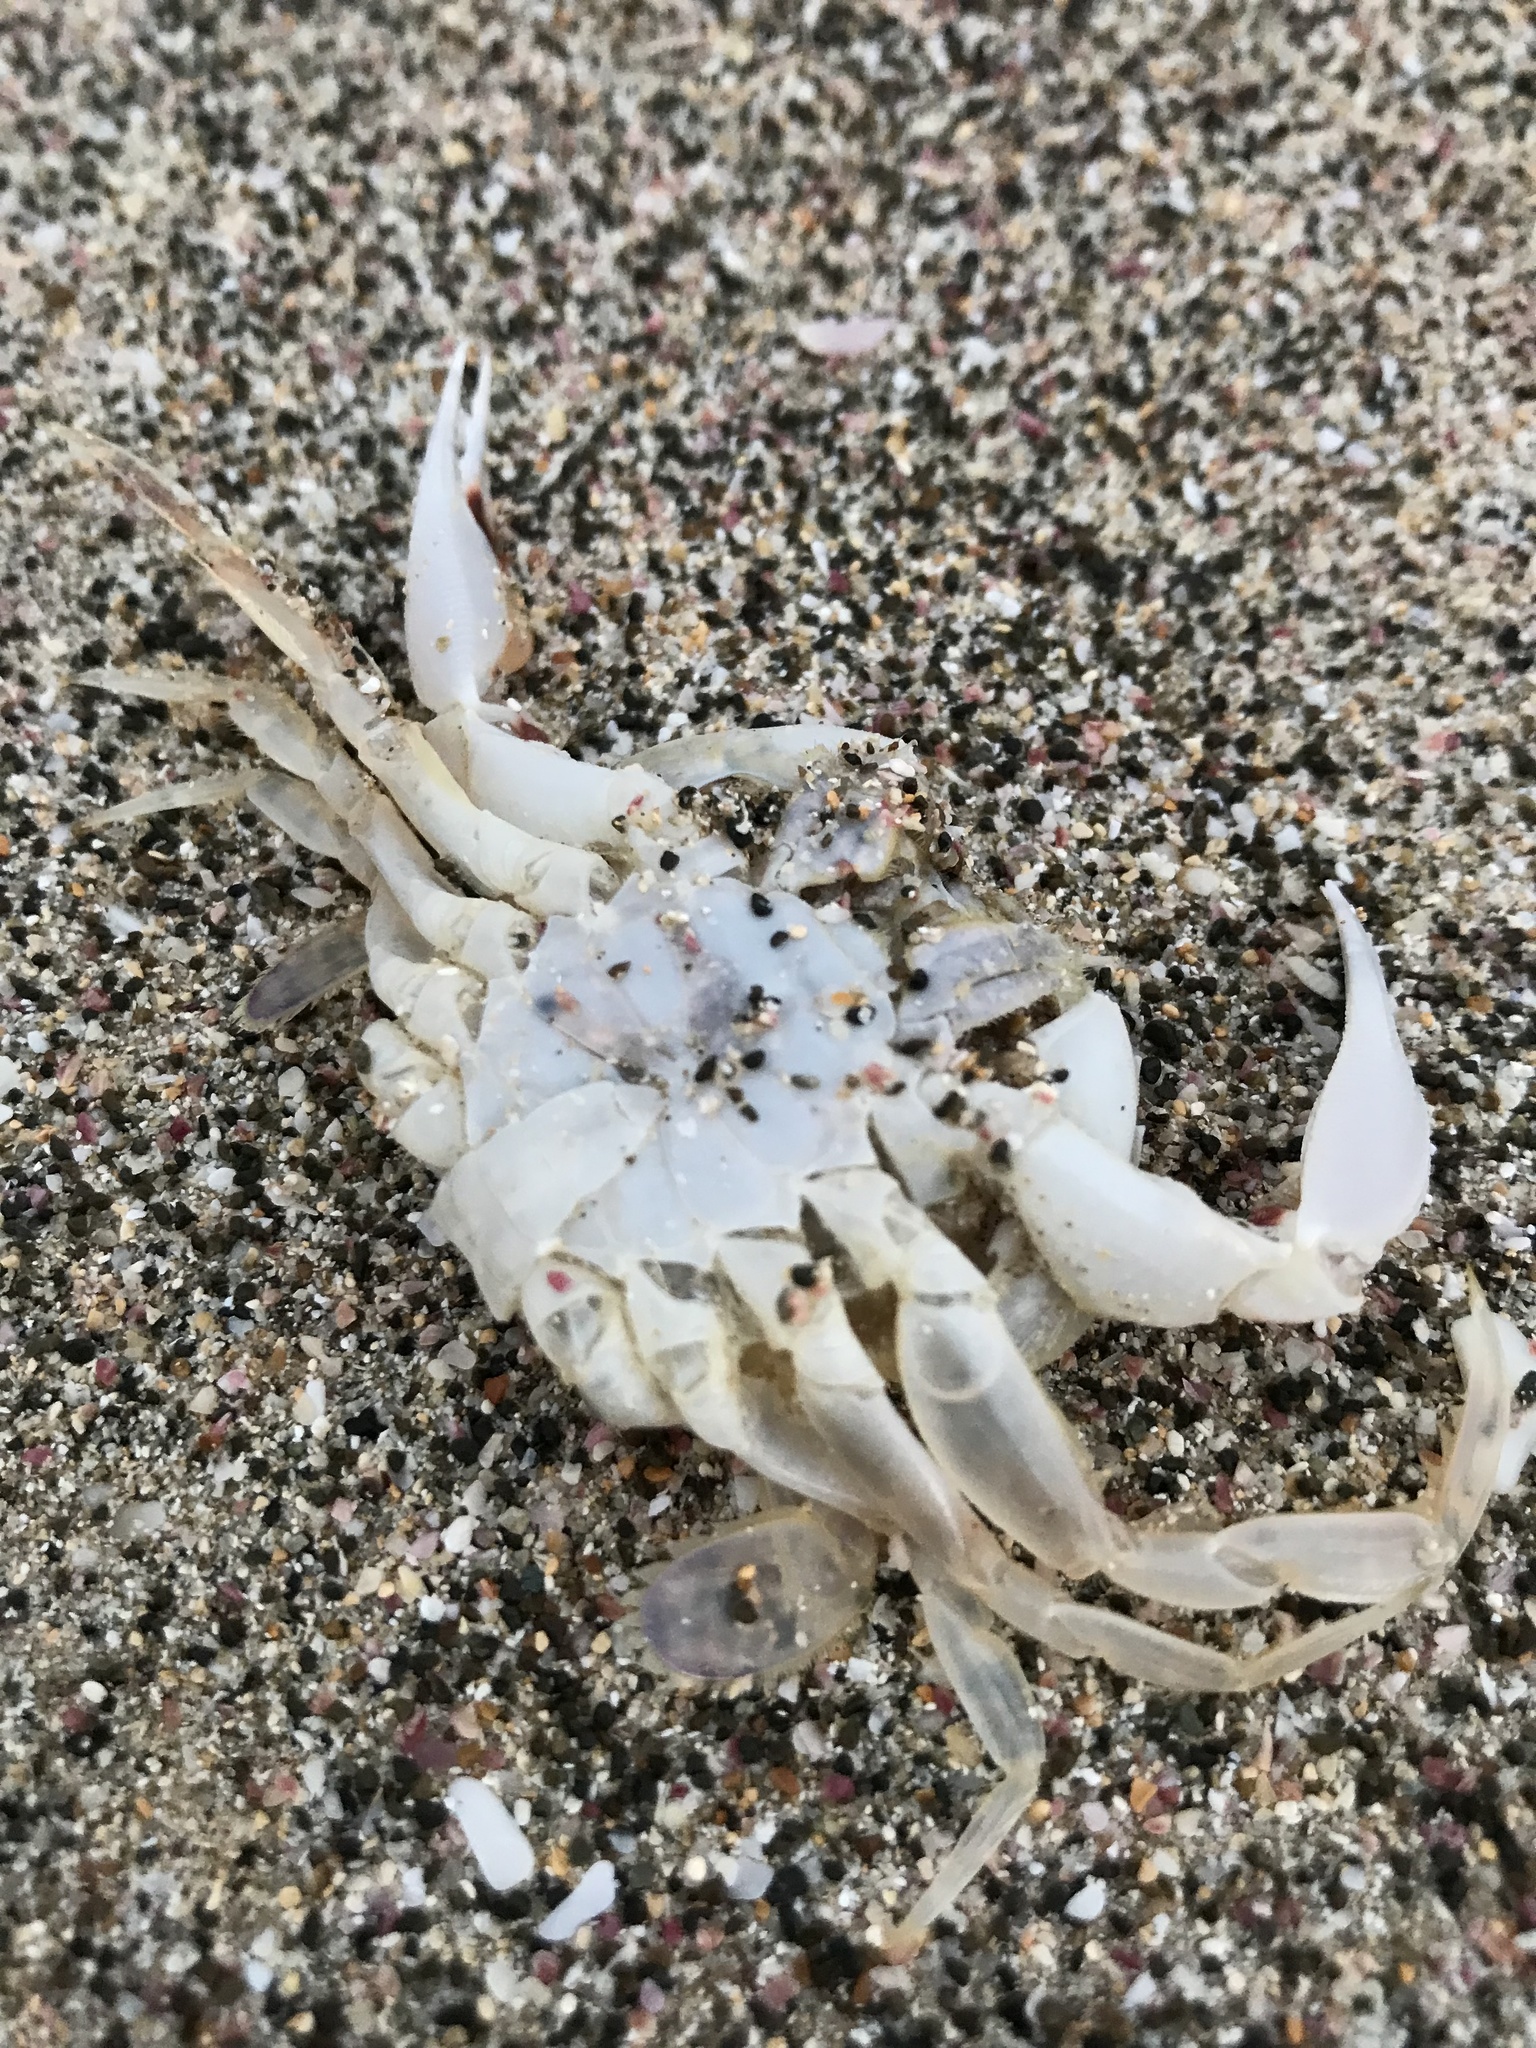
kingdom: Animalia
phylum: Arthropoda
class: Malacostraca
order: Decapoda
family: Ovalipidae
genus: Ovalipes
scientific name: Ovalipes catharus
